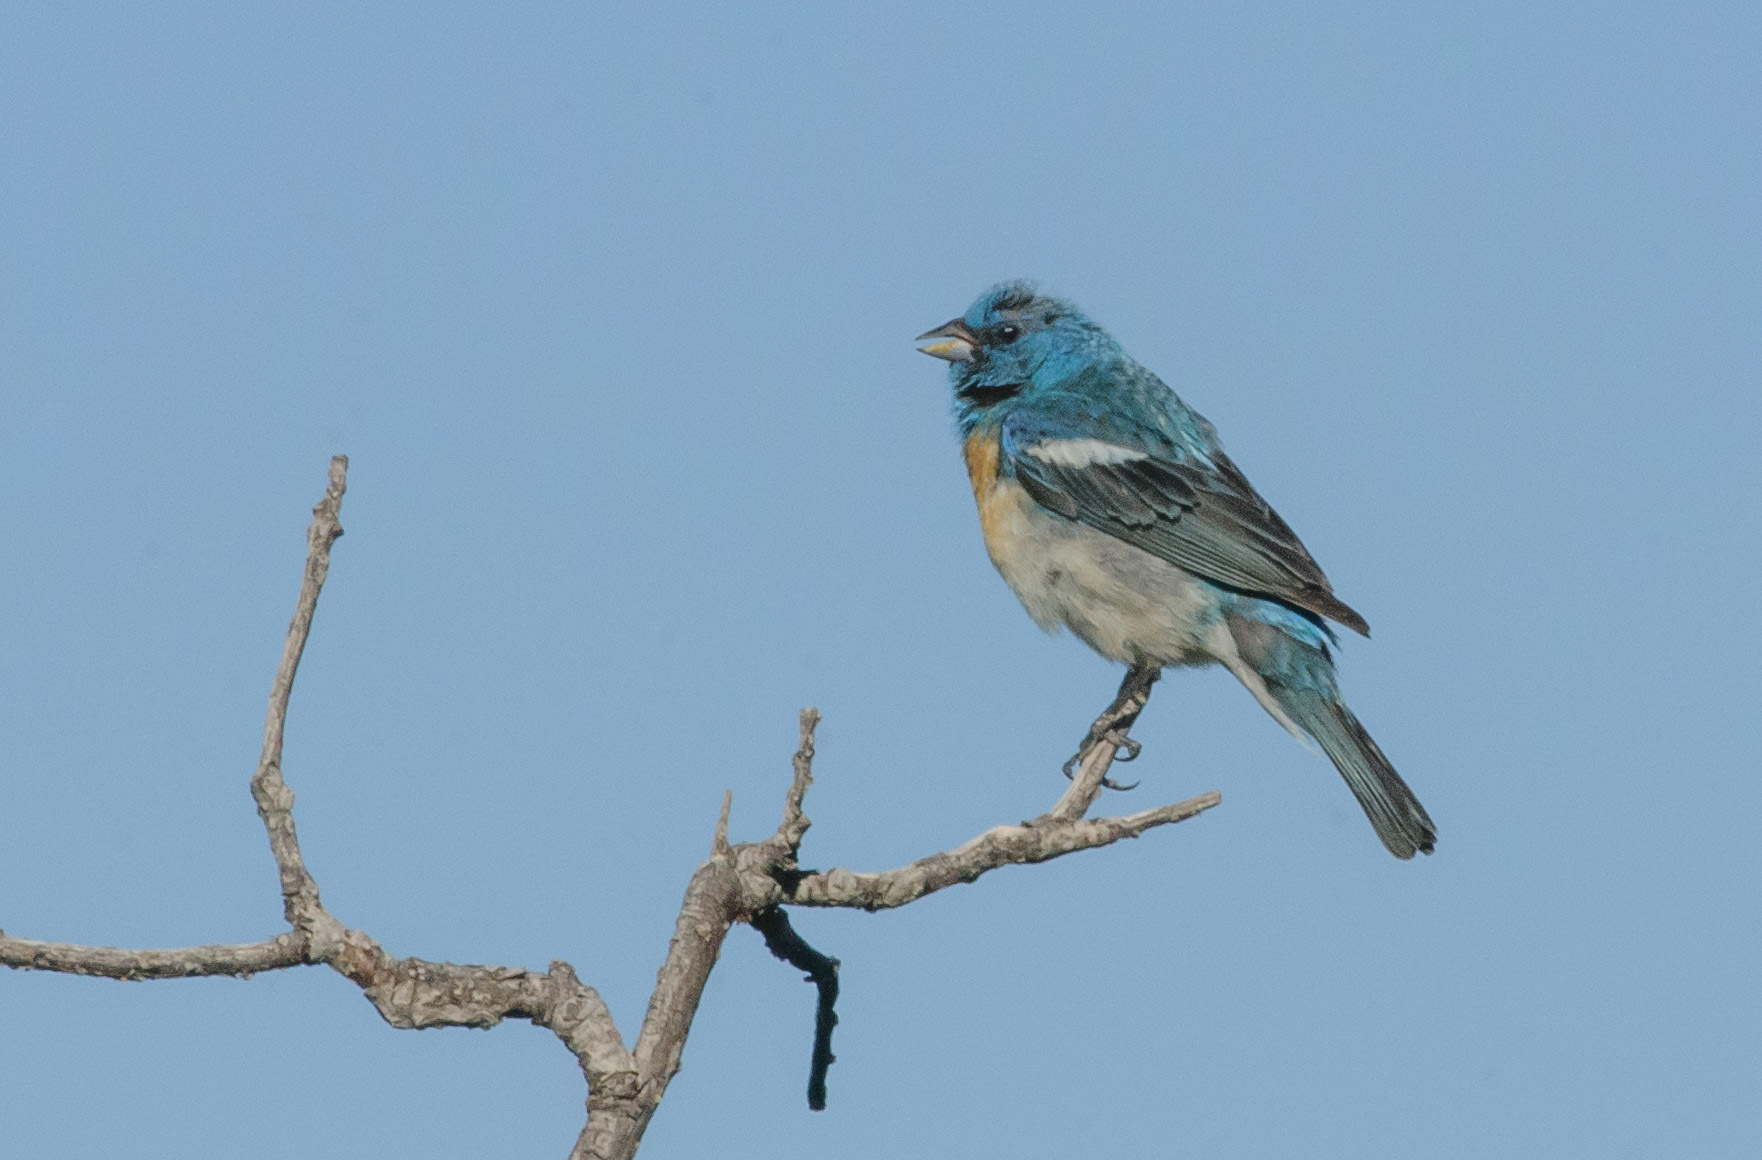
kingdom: Animalia
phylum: Chordata
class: Aves
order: Passeriformes
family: Cardinalidae
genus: Passerina
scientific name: Passerina amoena
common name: Lazuli bunting
